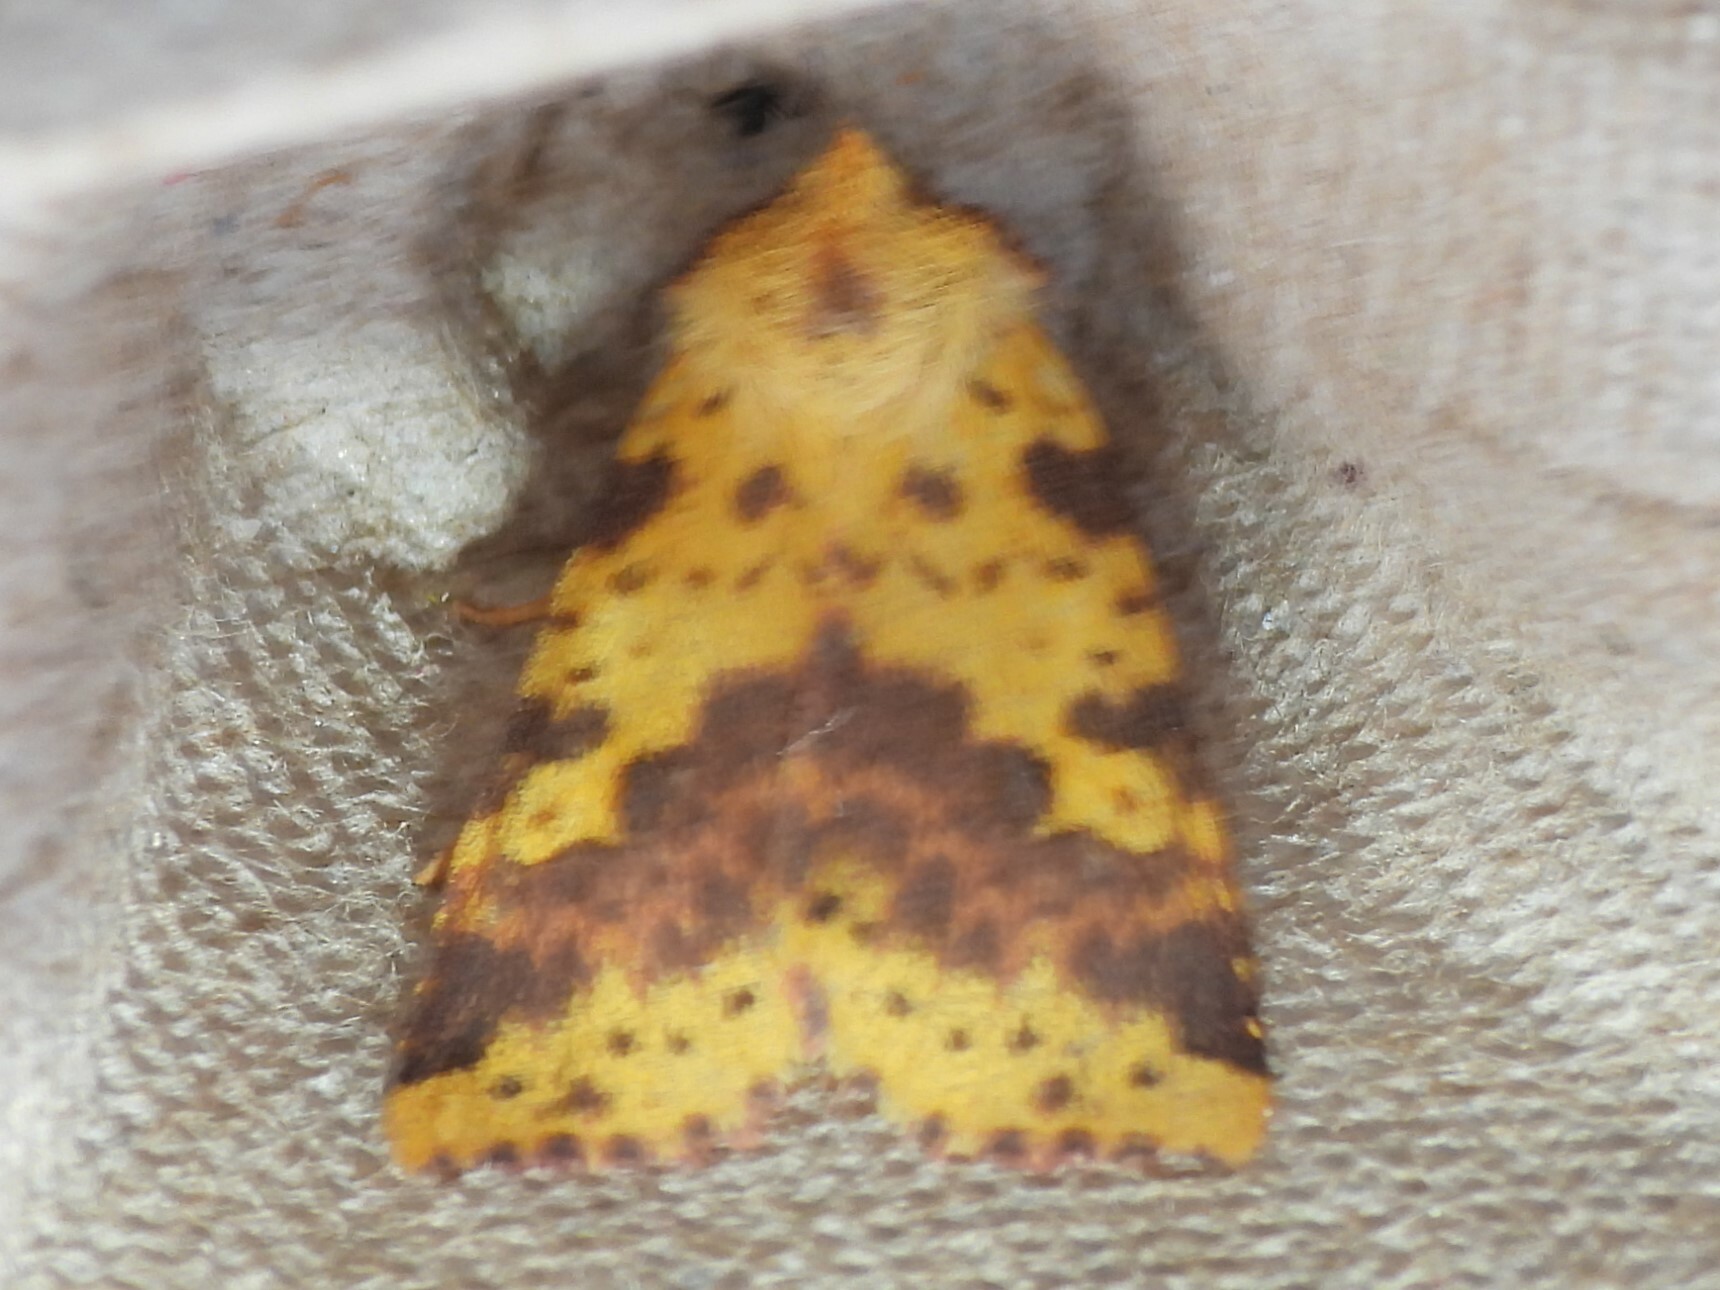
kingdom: Animalia
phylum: Arthropoda
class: Insecta
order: Lepidoptera
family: Noctuidae
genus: Xanthia
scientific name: Xanthia tatago
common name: Pink-banded sallow
